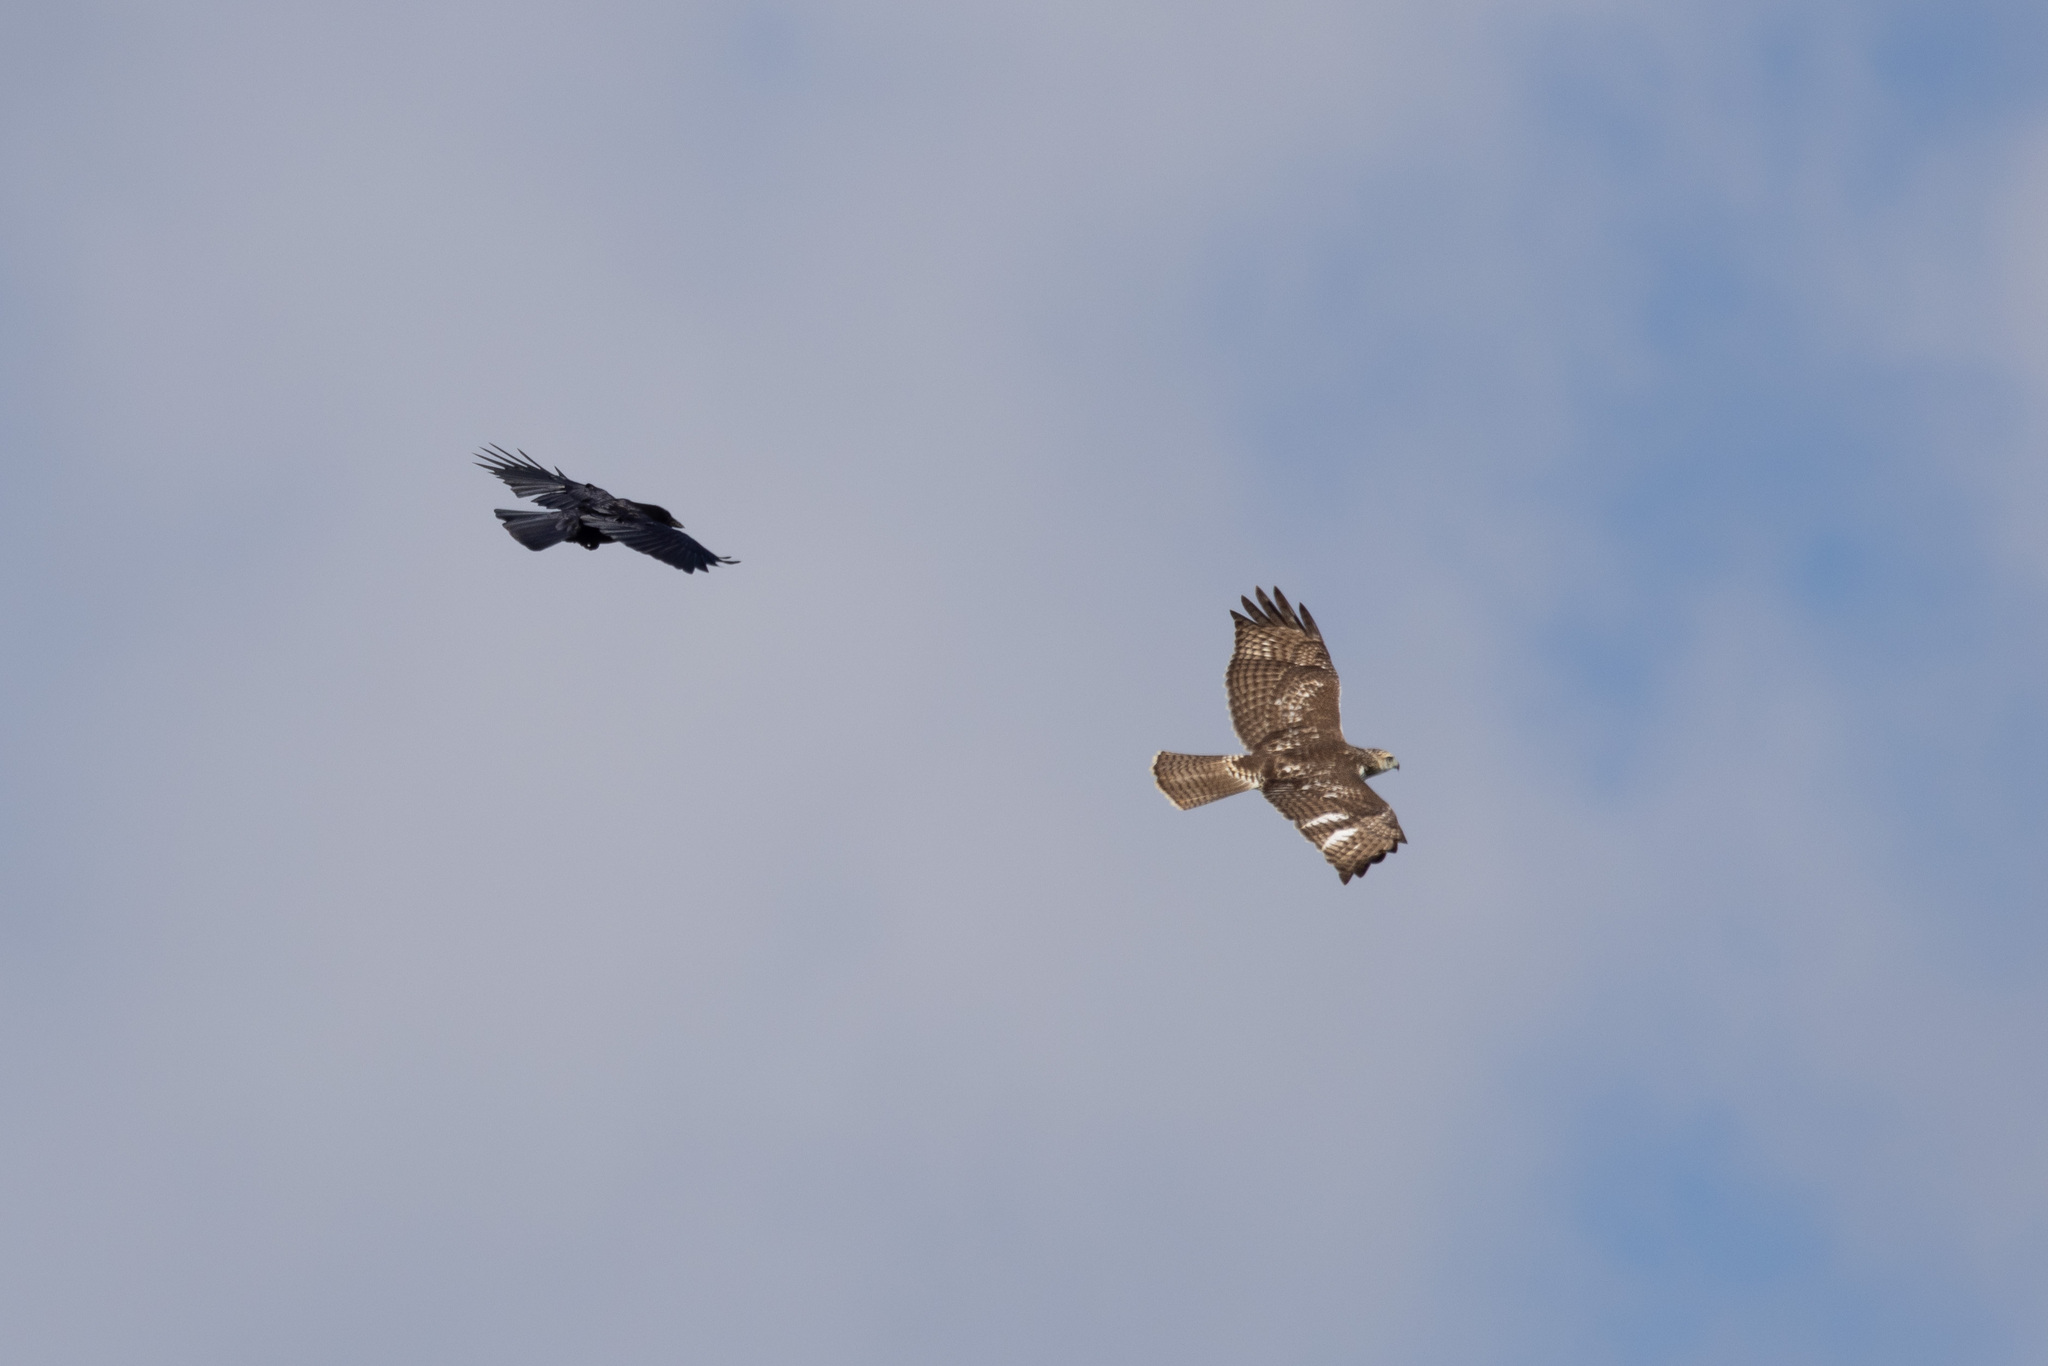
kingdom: Animalia
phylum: Chordata
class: Aves
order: Accipitriformes
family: Accipitridae
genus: Buteo
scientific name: Buteo jamaicensis
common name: Red-tailed hawk
